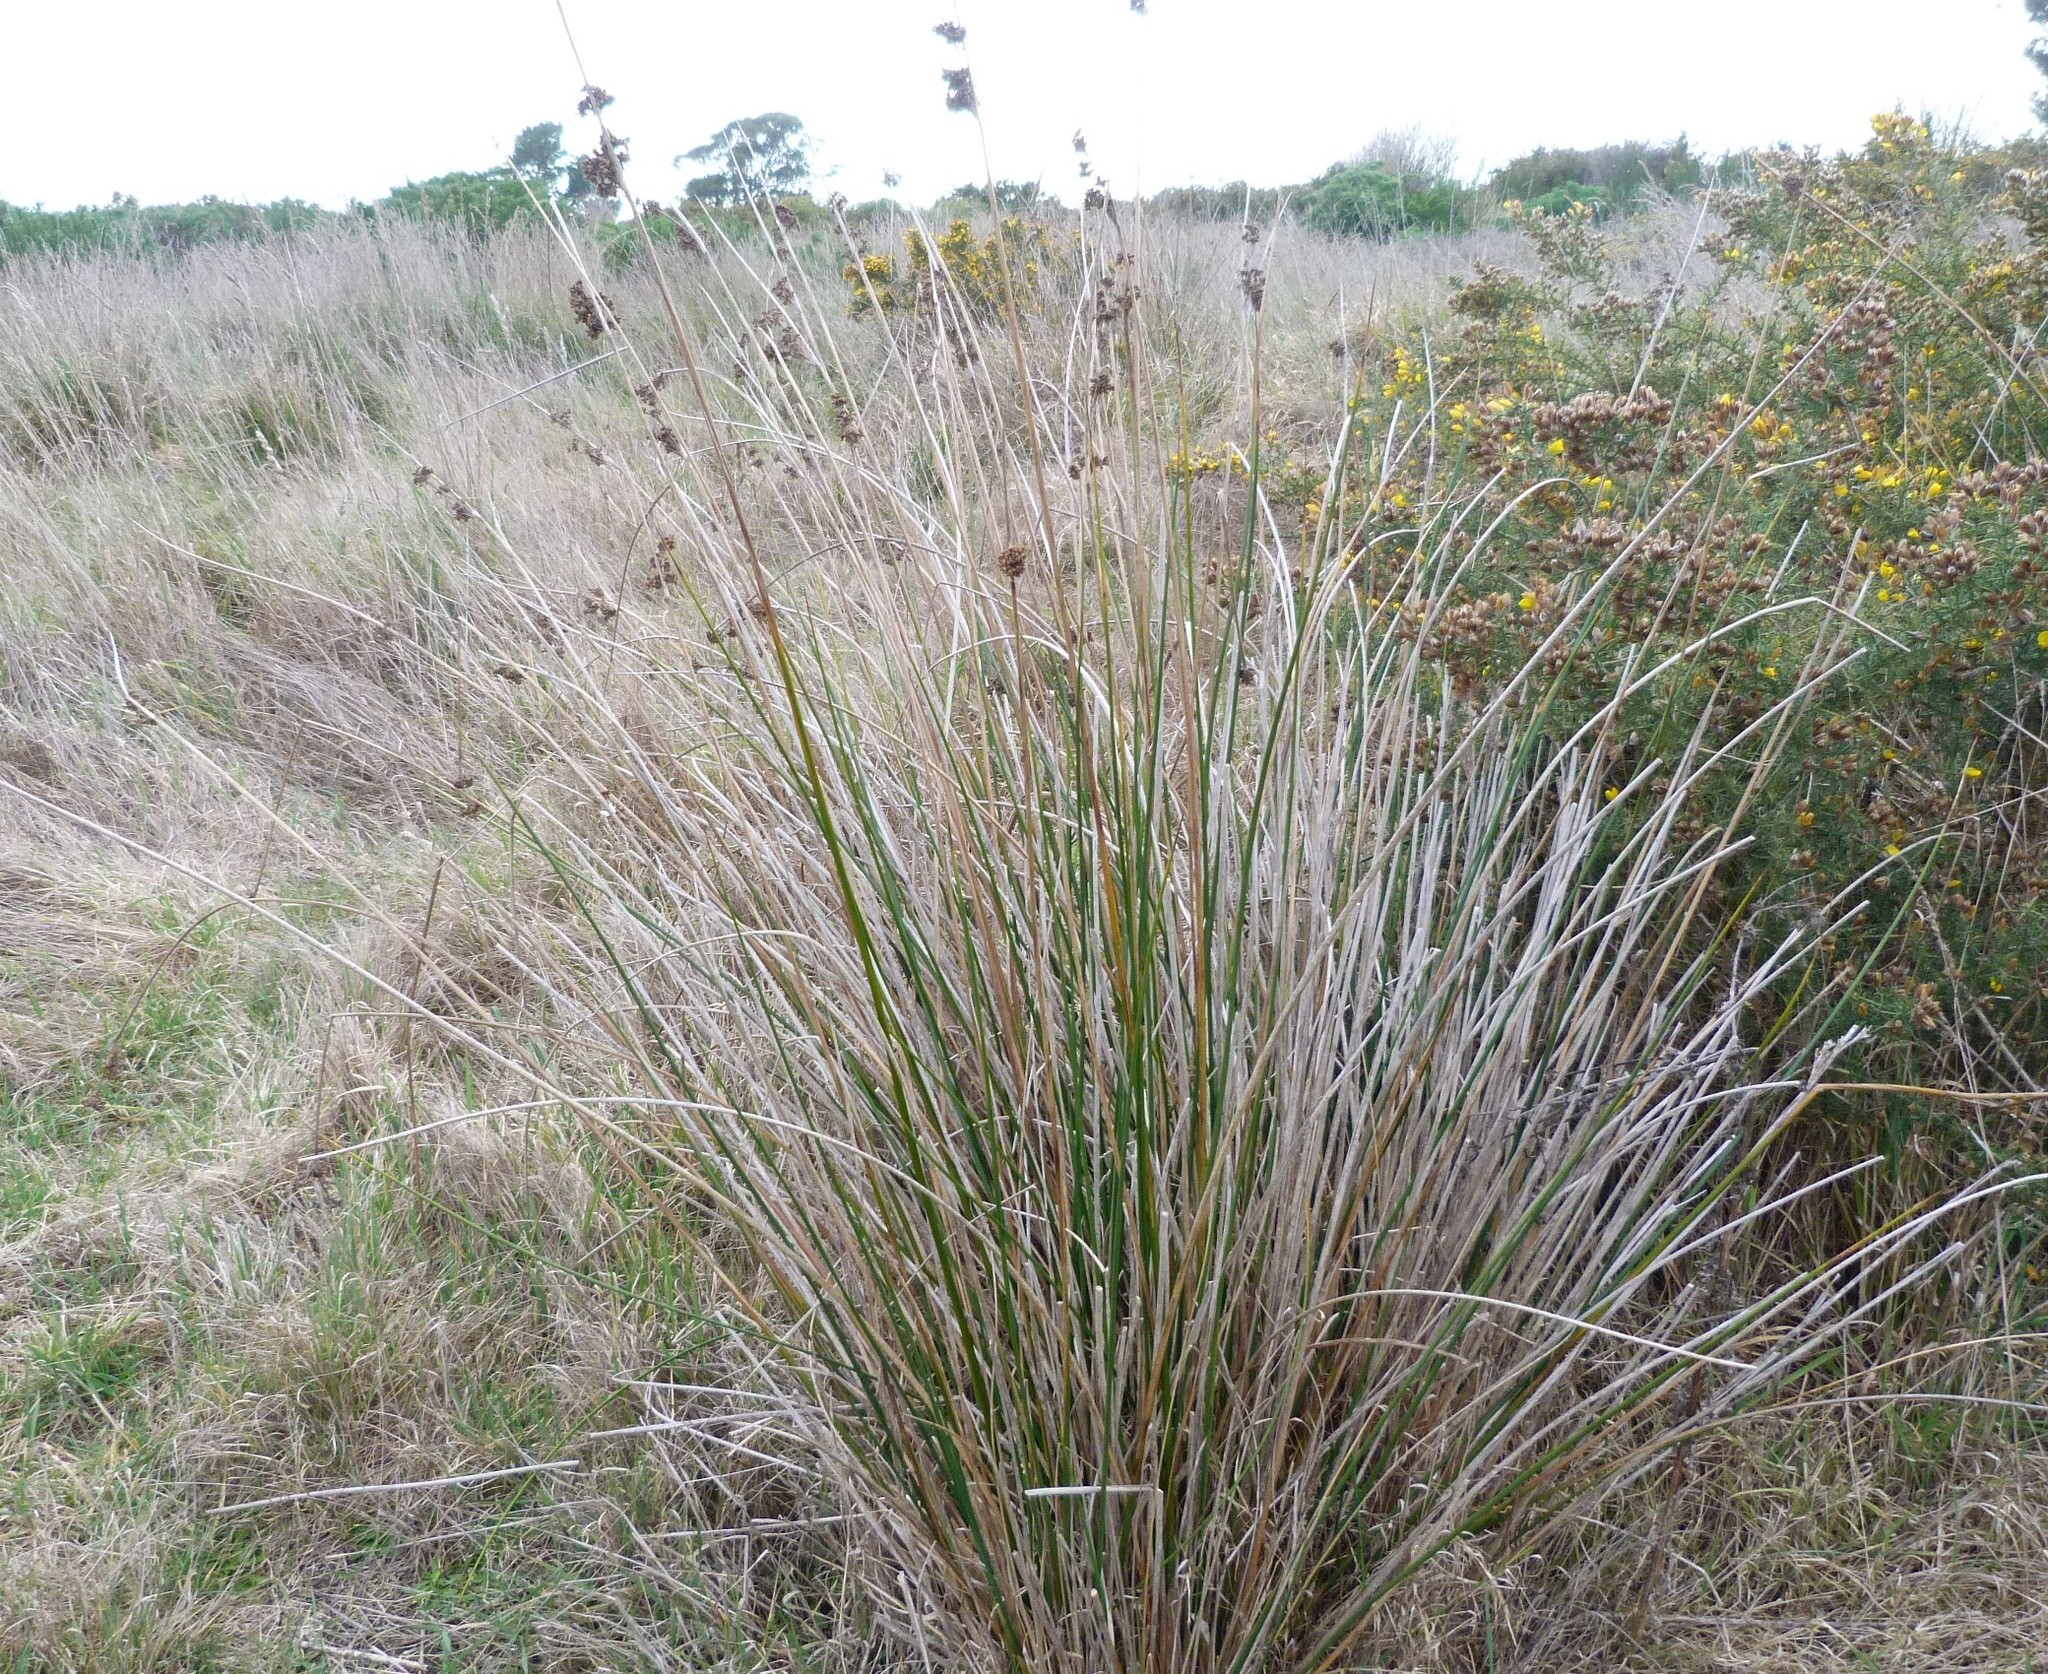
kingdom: Plantae
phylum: Tracheophyta
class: Liliopsida
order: Poales
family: Juncaceae
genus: Juncus
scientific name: Juncus pallidus
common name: Great soft-rush
